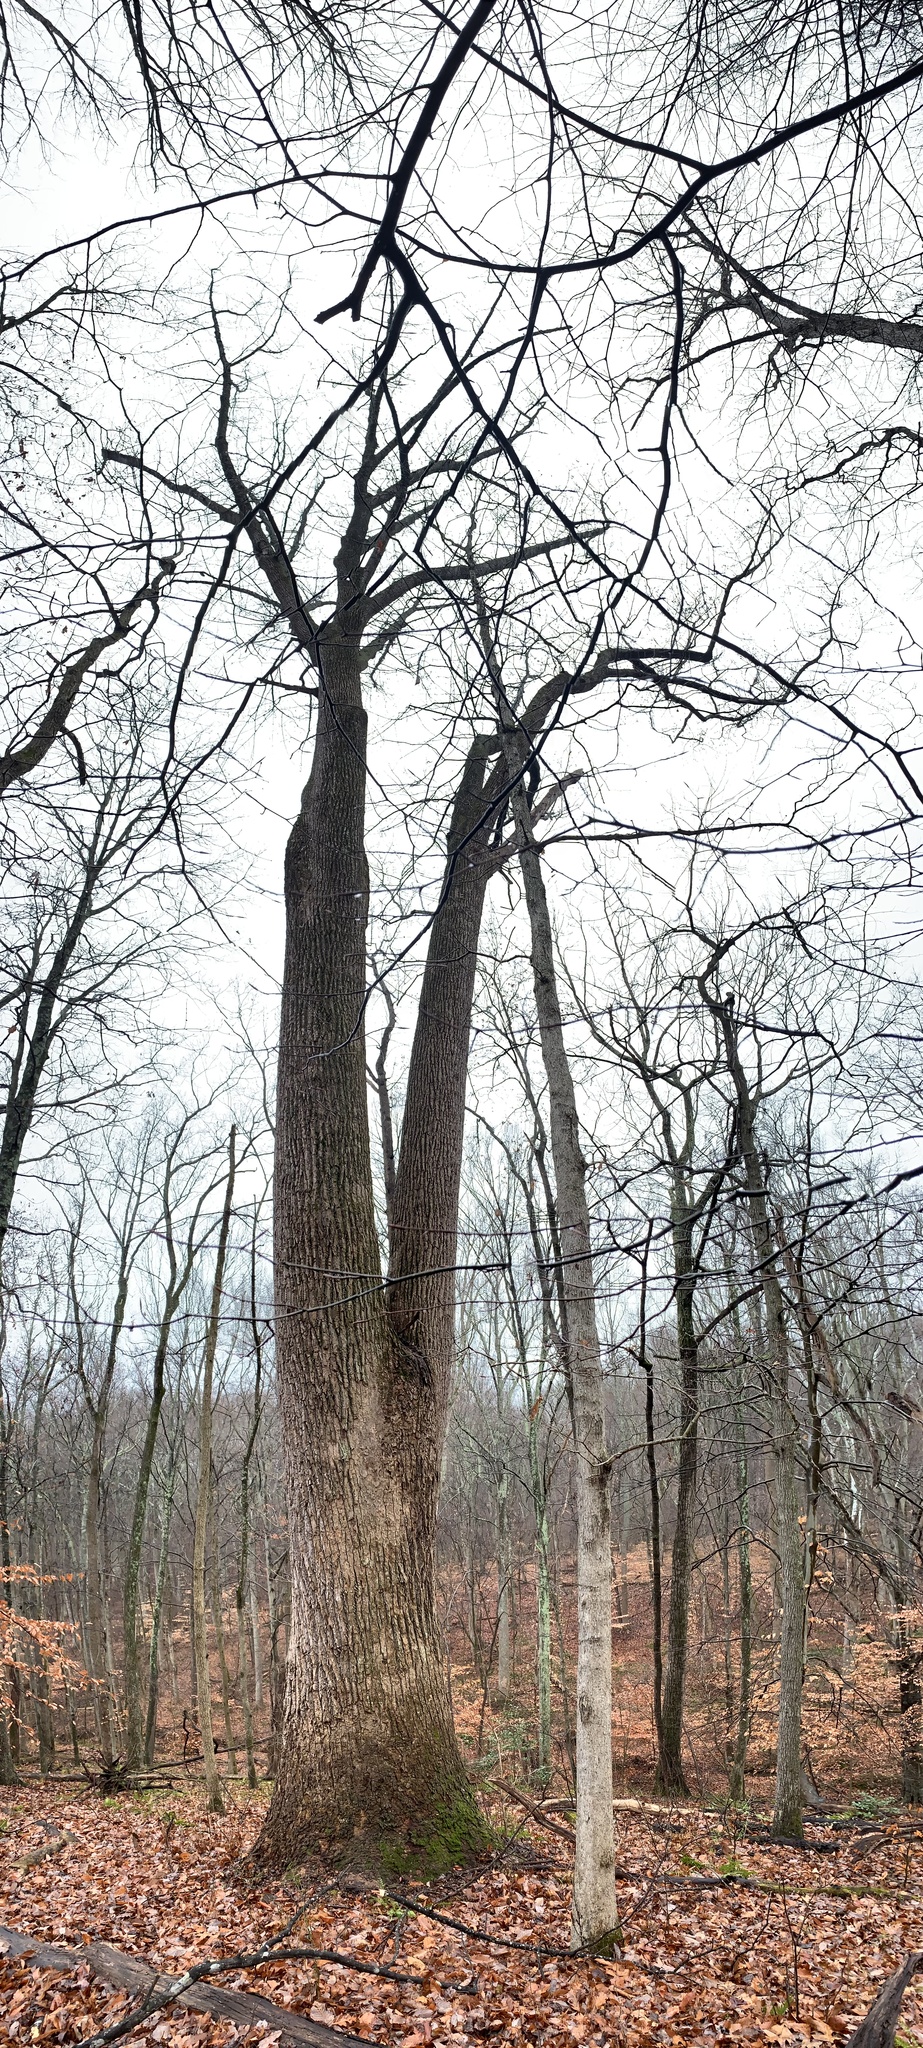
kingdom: Plantae
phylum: Tracheophyta
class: Magnoliopsida
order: Magnoliales
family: Magnoliaceae
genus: Liriodendron
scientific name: Liriodendron tulipifera
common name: Tulip tree
